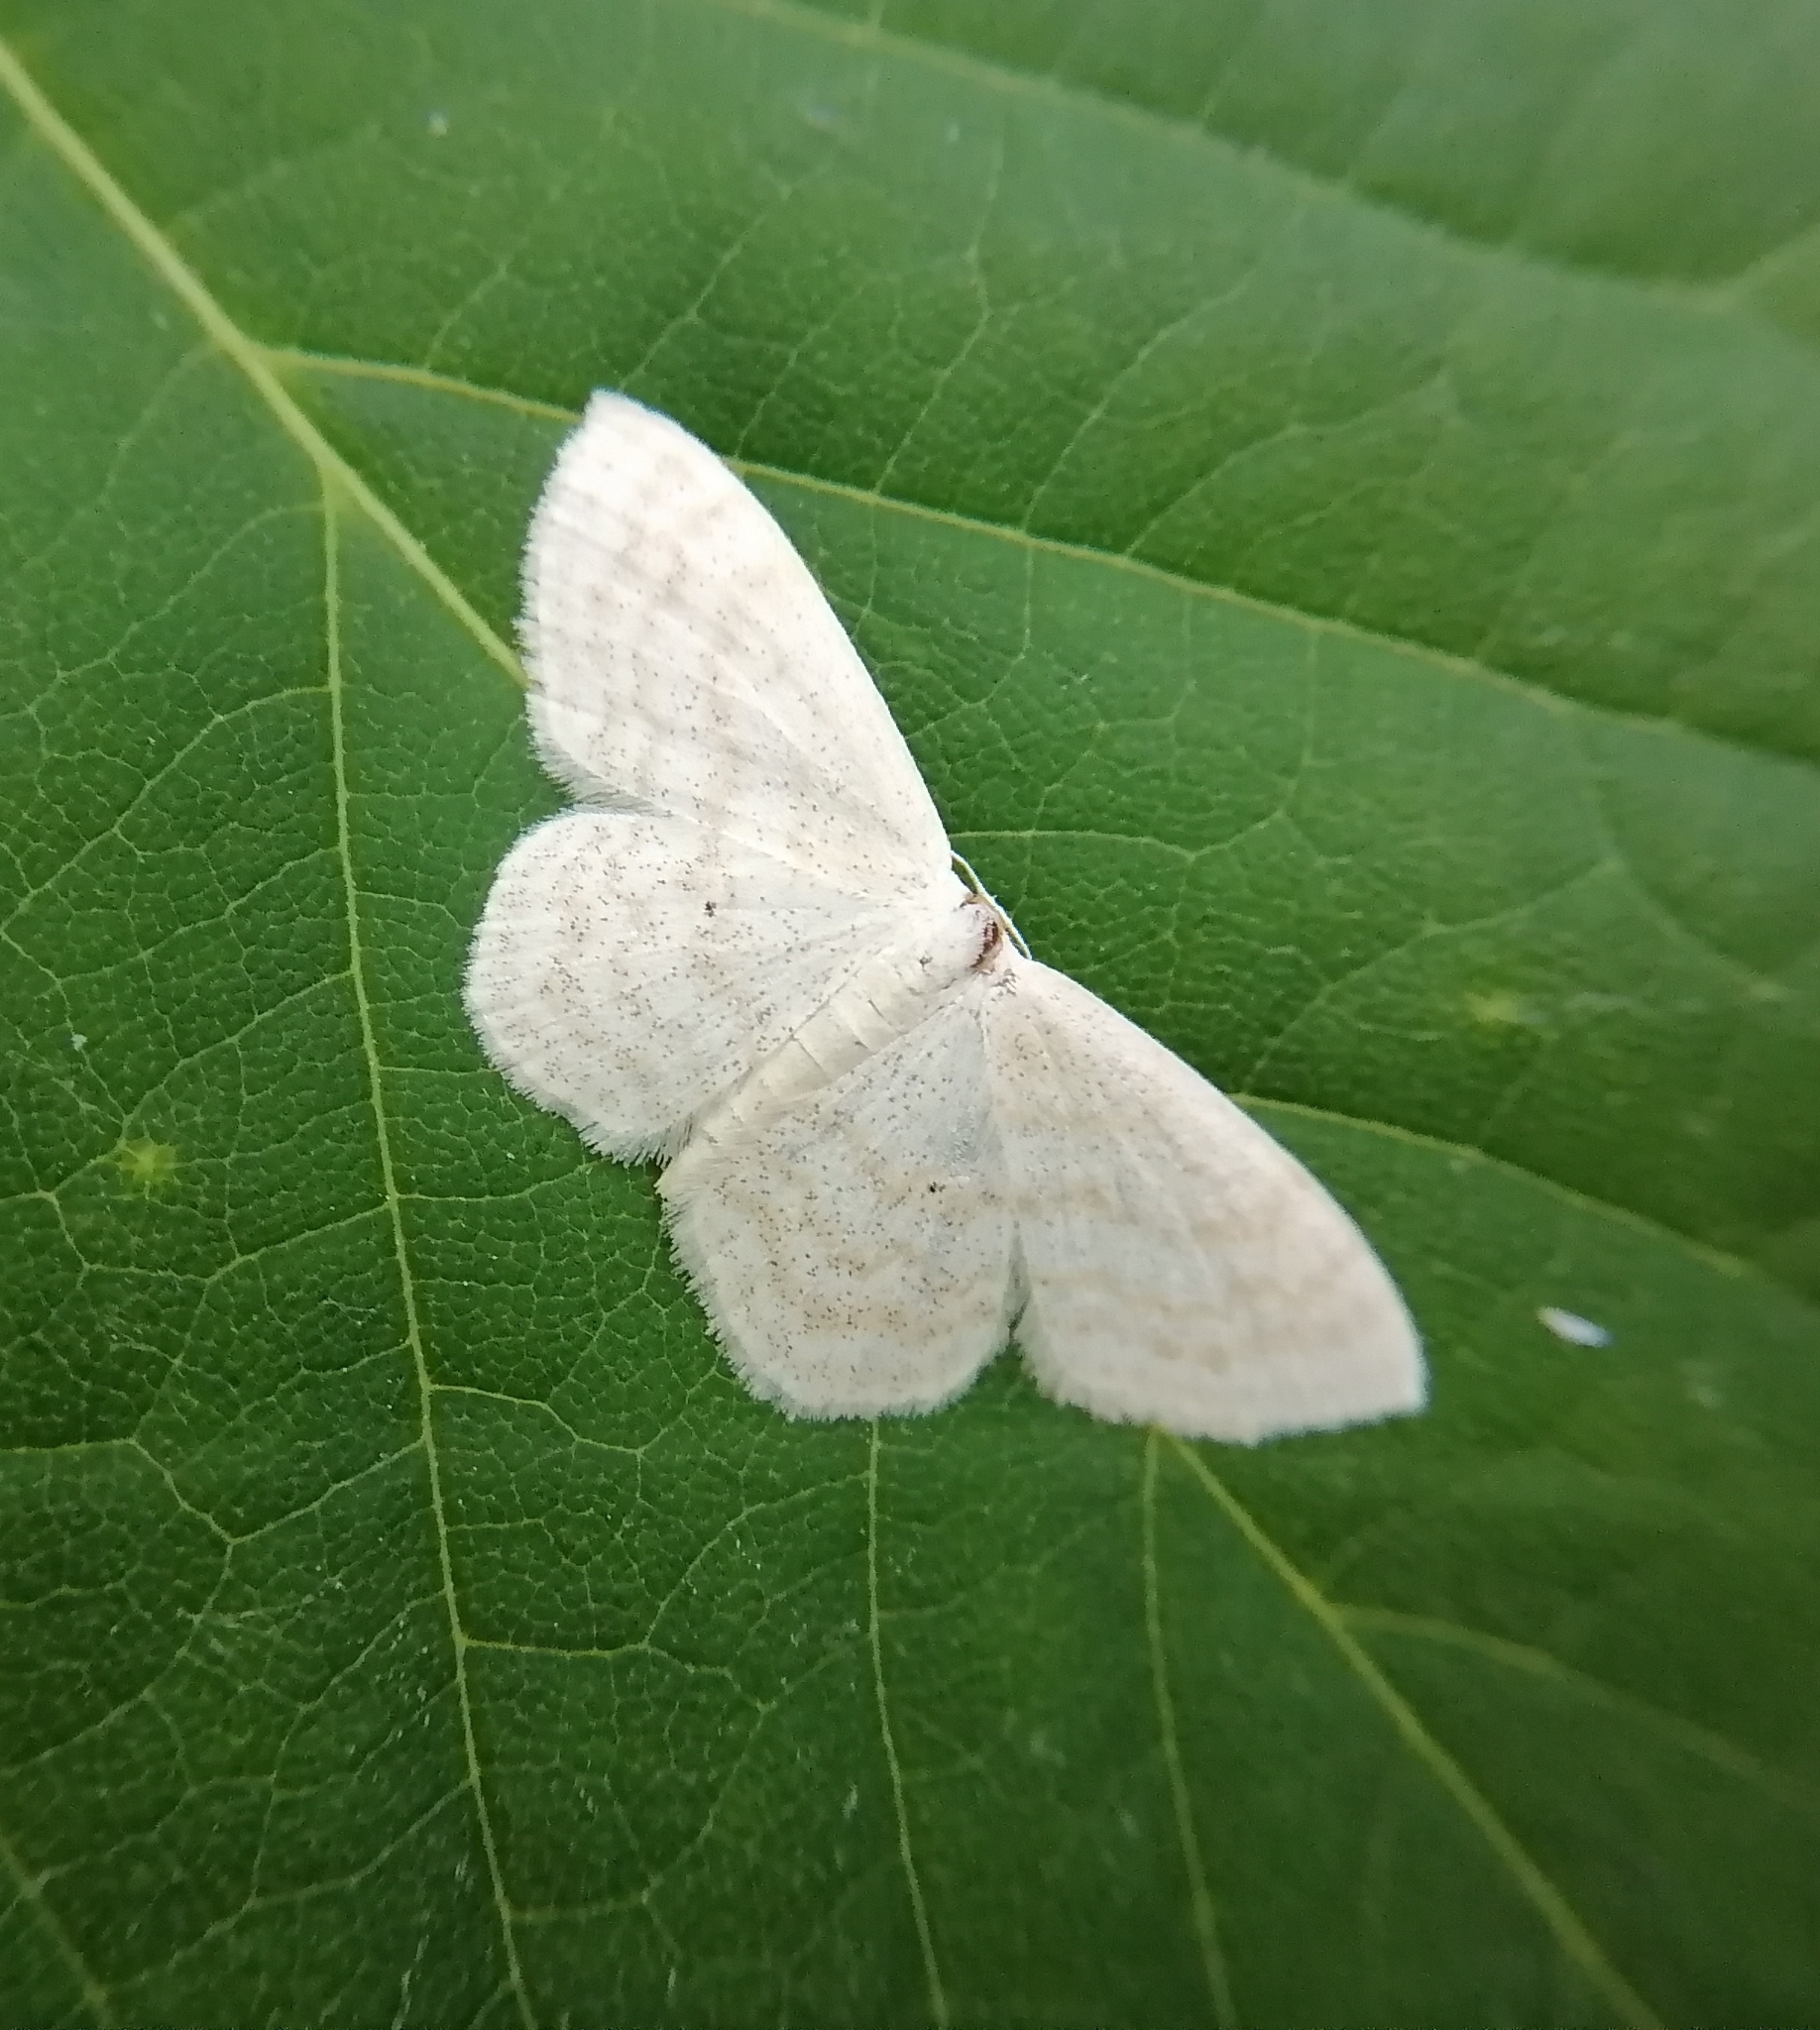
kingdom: Animalia
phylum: Arthropoda
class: Insecta
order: Lepidoptera
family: Geometridae
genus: Scopula
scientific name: Scopula floslactata
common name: Cream wave
